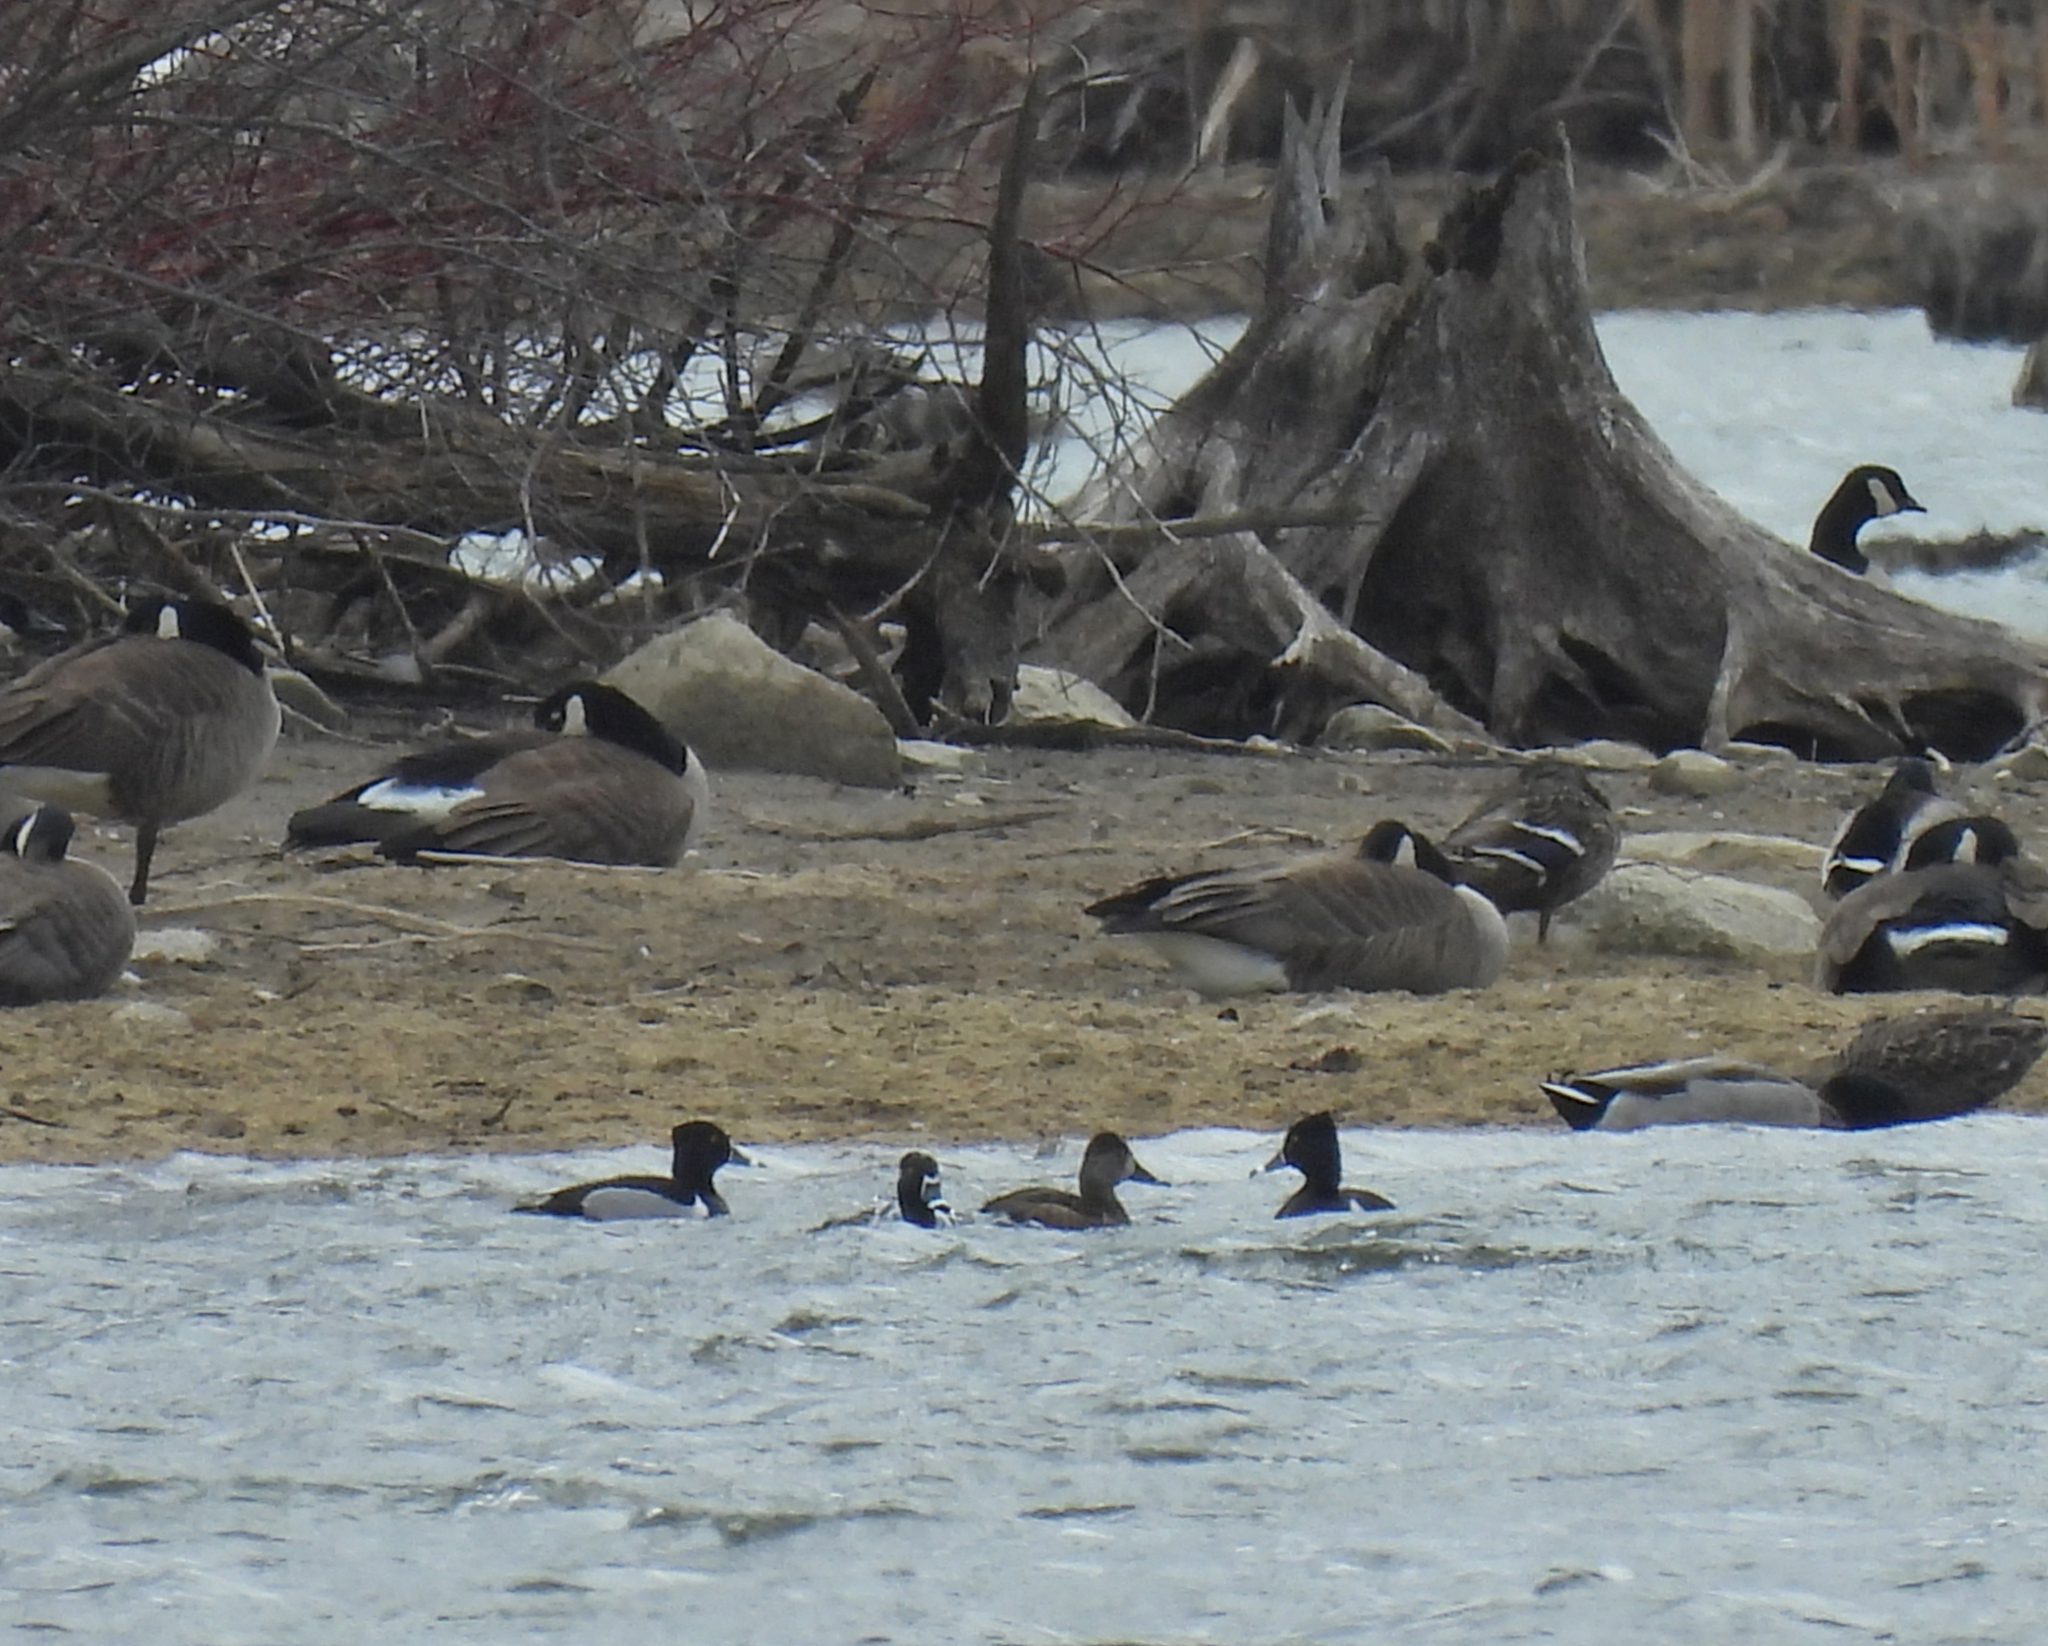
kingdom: Animalia
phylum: Chordata
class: Aves
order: Anseriformes
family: Anatidae
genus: Aythya
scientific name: Aythya collaris
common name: Ring-necked duck
